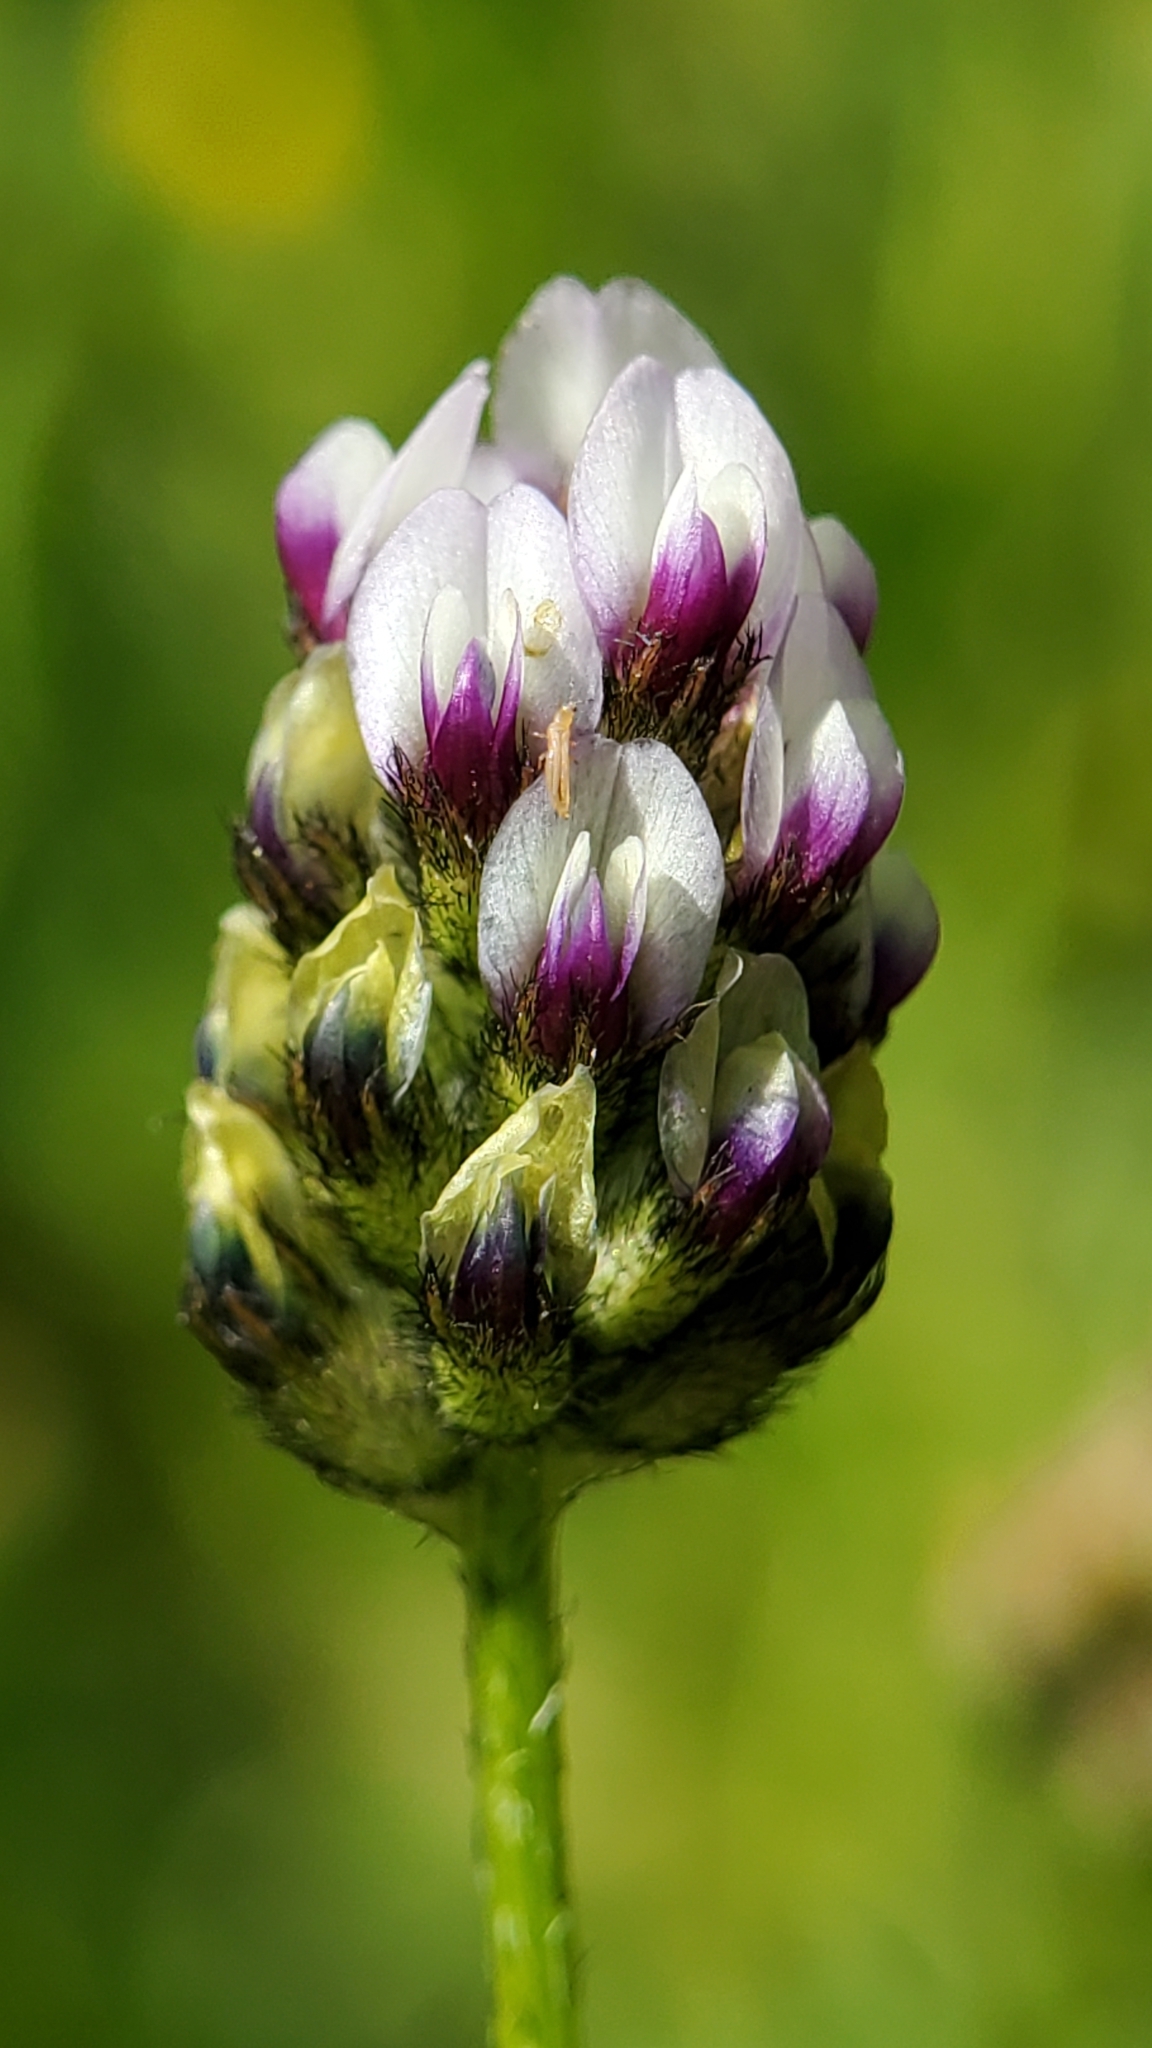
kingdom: Plantae
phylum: Tracheophyta
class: Magnoliopsida
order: Fabales
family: Fabaceae
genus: Astragalus
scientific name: Astragalus didymocarpus
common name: Dwarf white milkvetch
